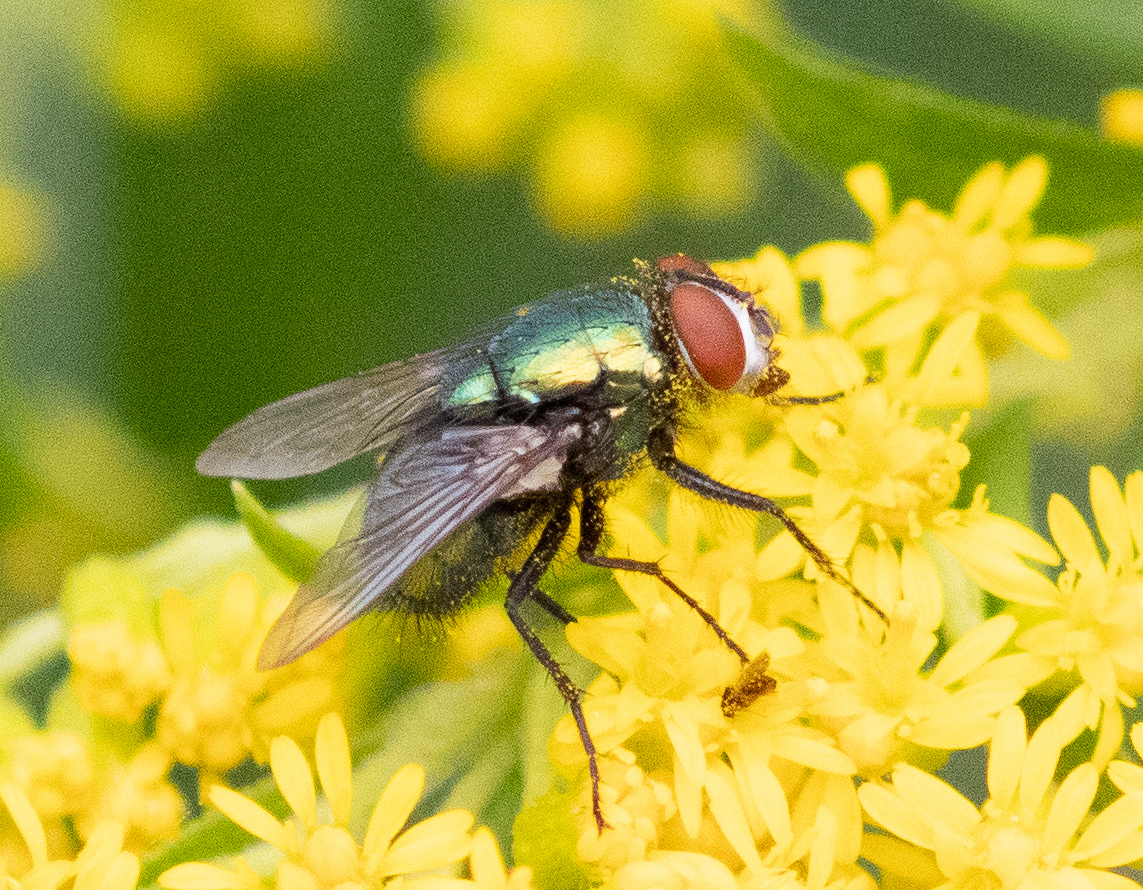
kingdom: Animalia
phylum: Arthropoda
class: Insecta
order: Diptera
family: Calliphoridae
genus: Lucilia
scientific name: Lucilia sericata
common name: Blow fly
